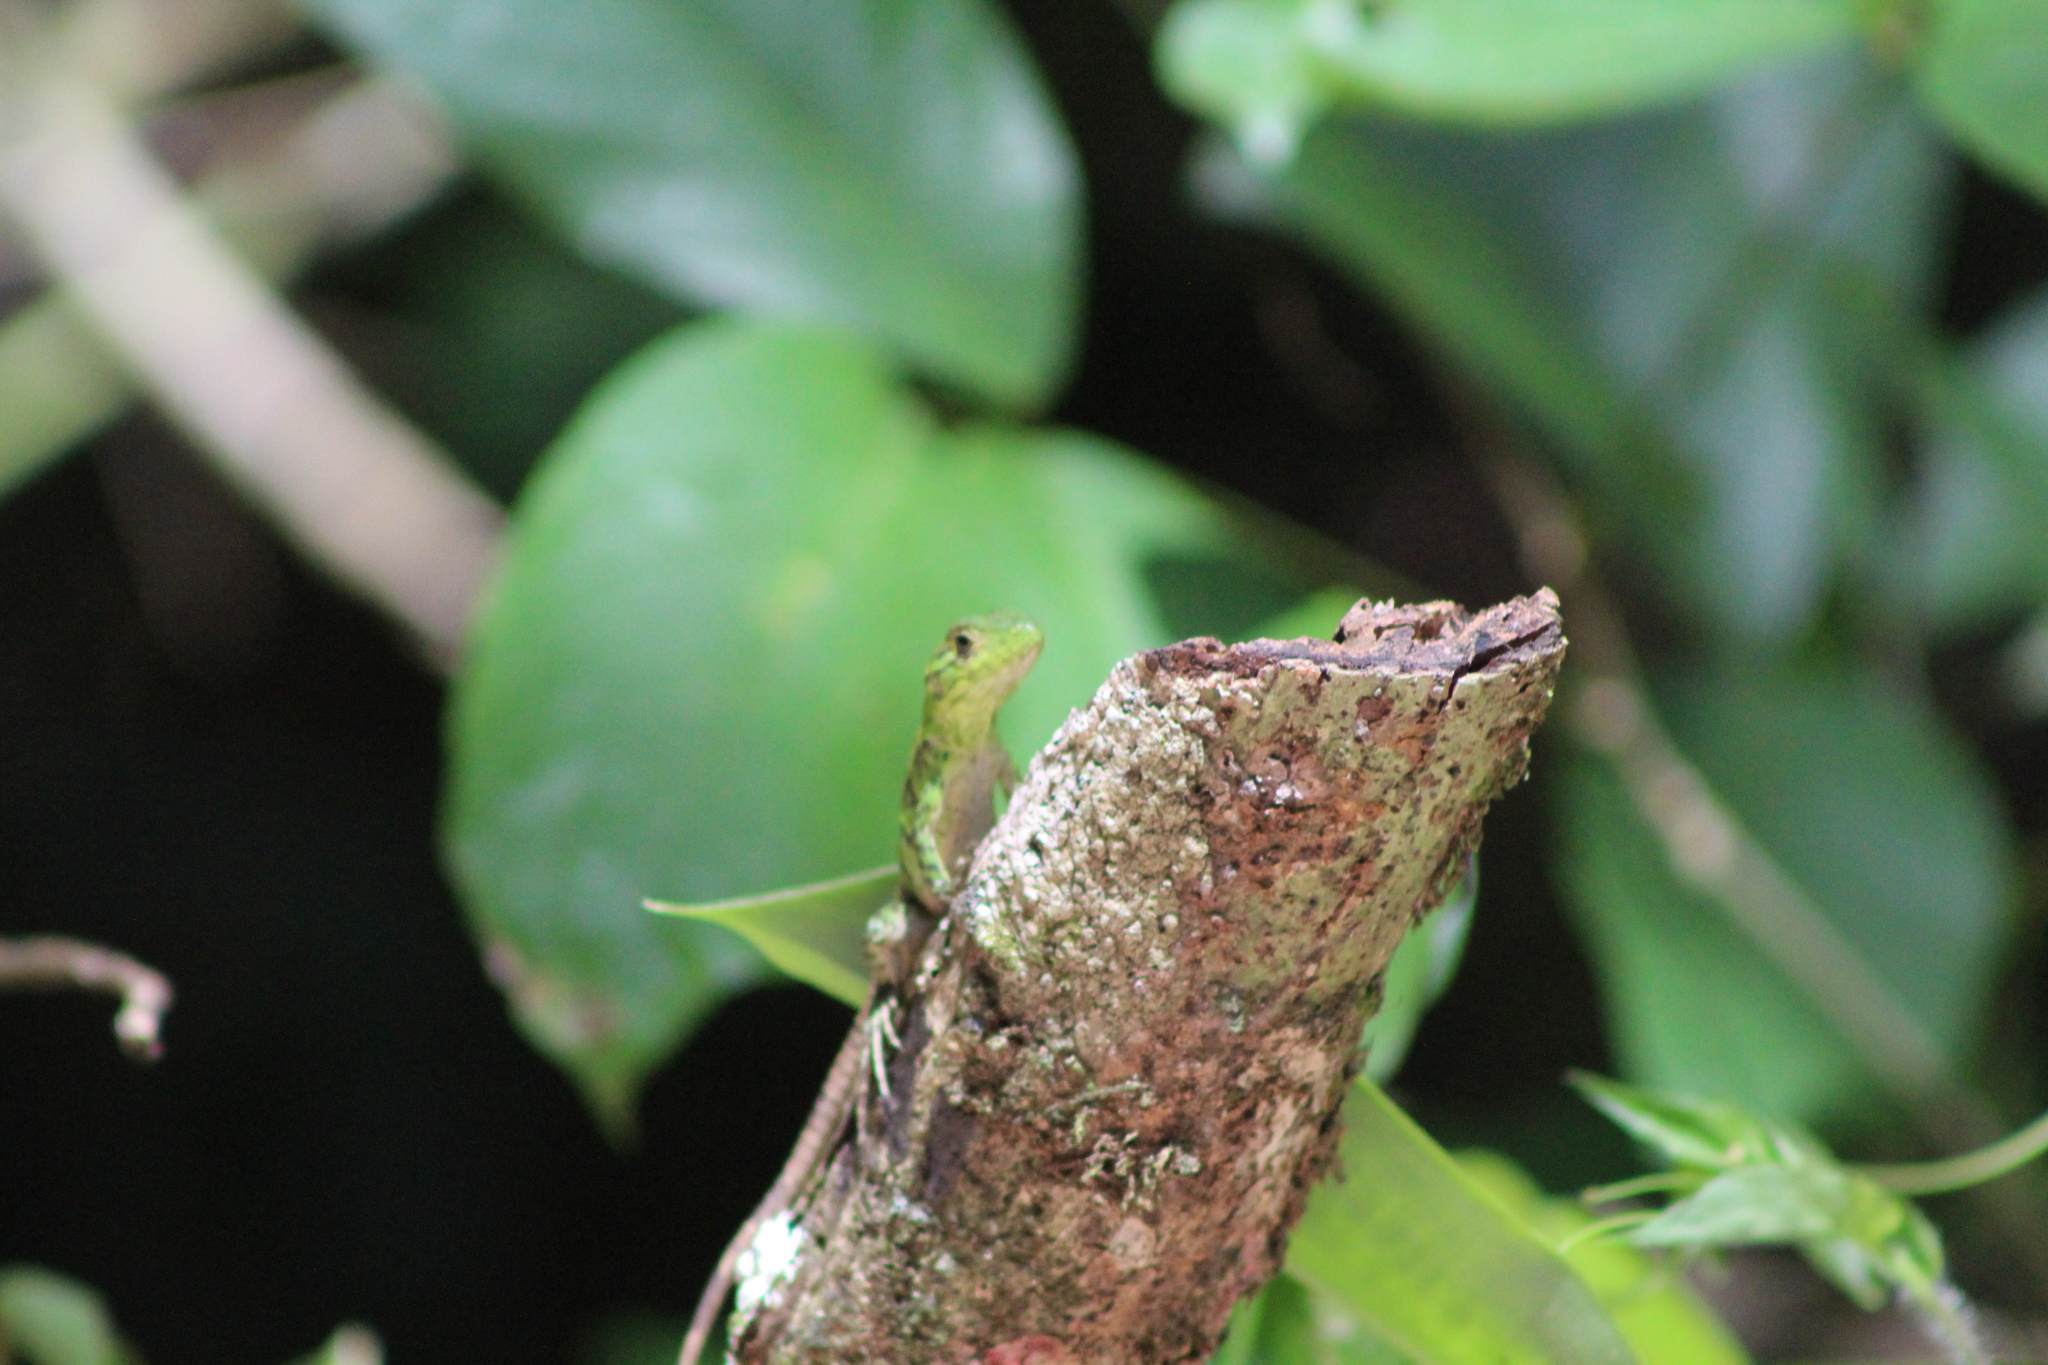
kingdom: Animalia
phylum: Chordata
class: Squamata
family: Dactyloidae
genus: Anolis
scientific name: Anolis biporcatus
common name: Giant green anole
